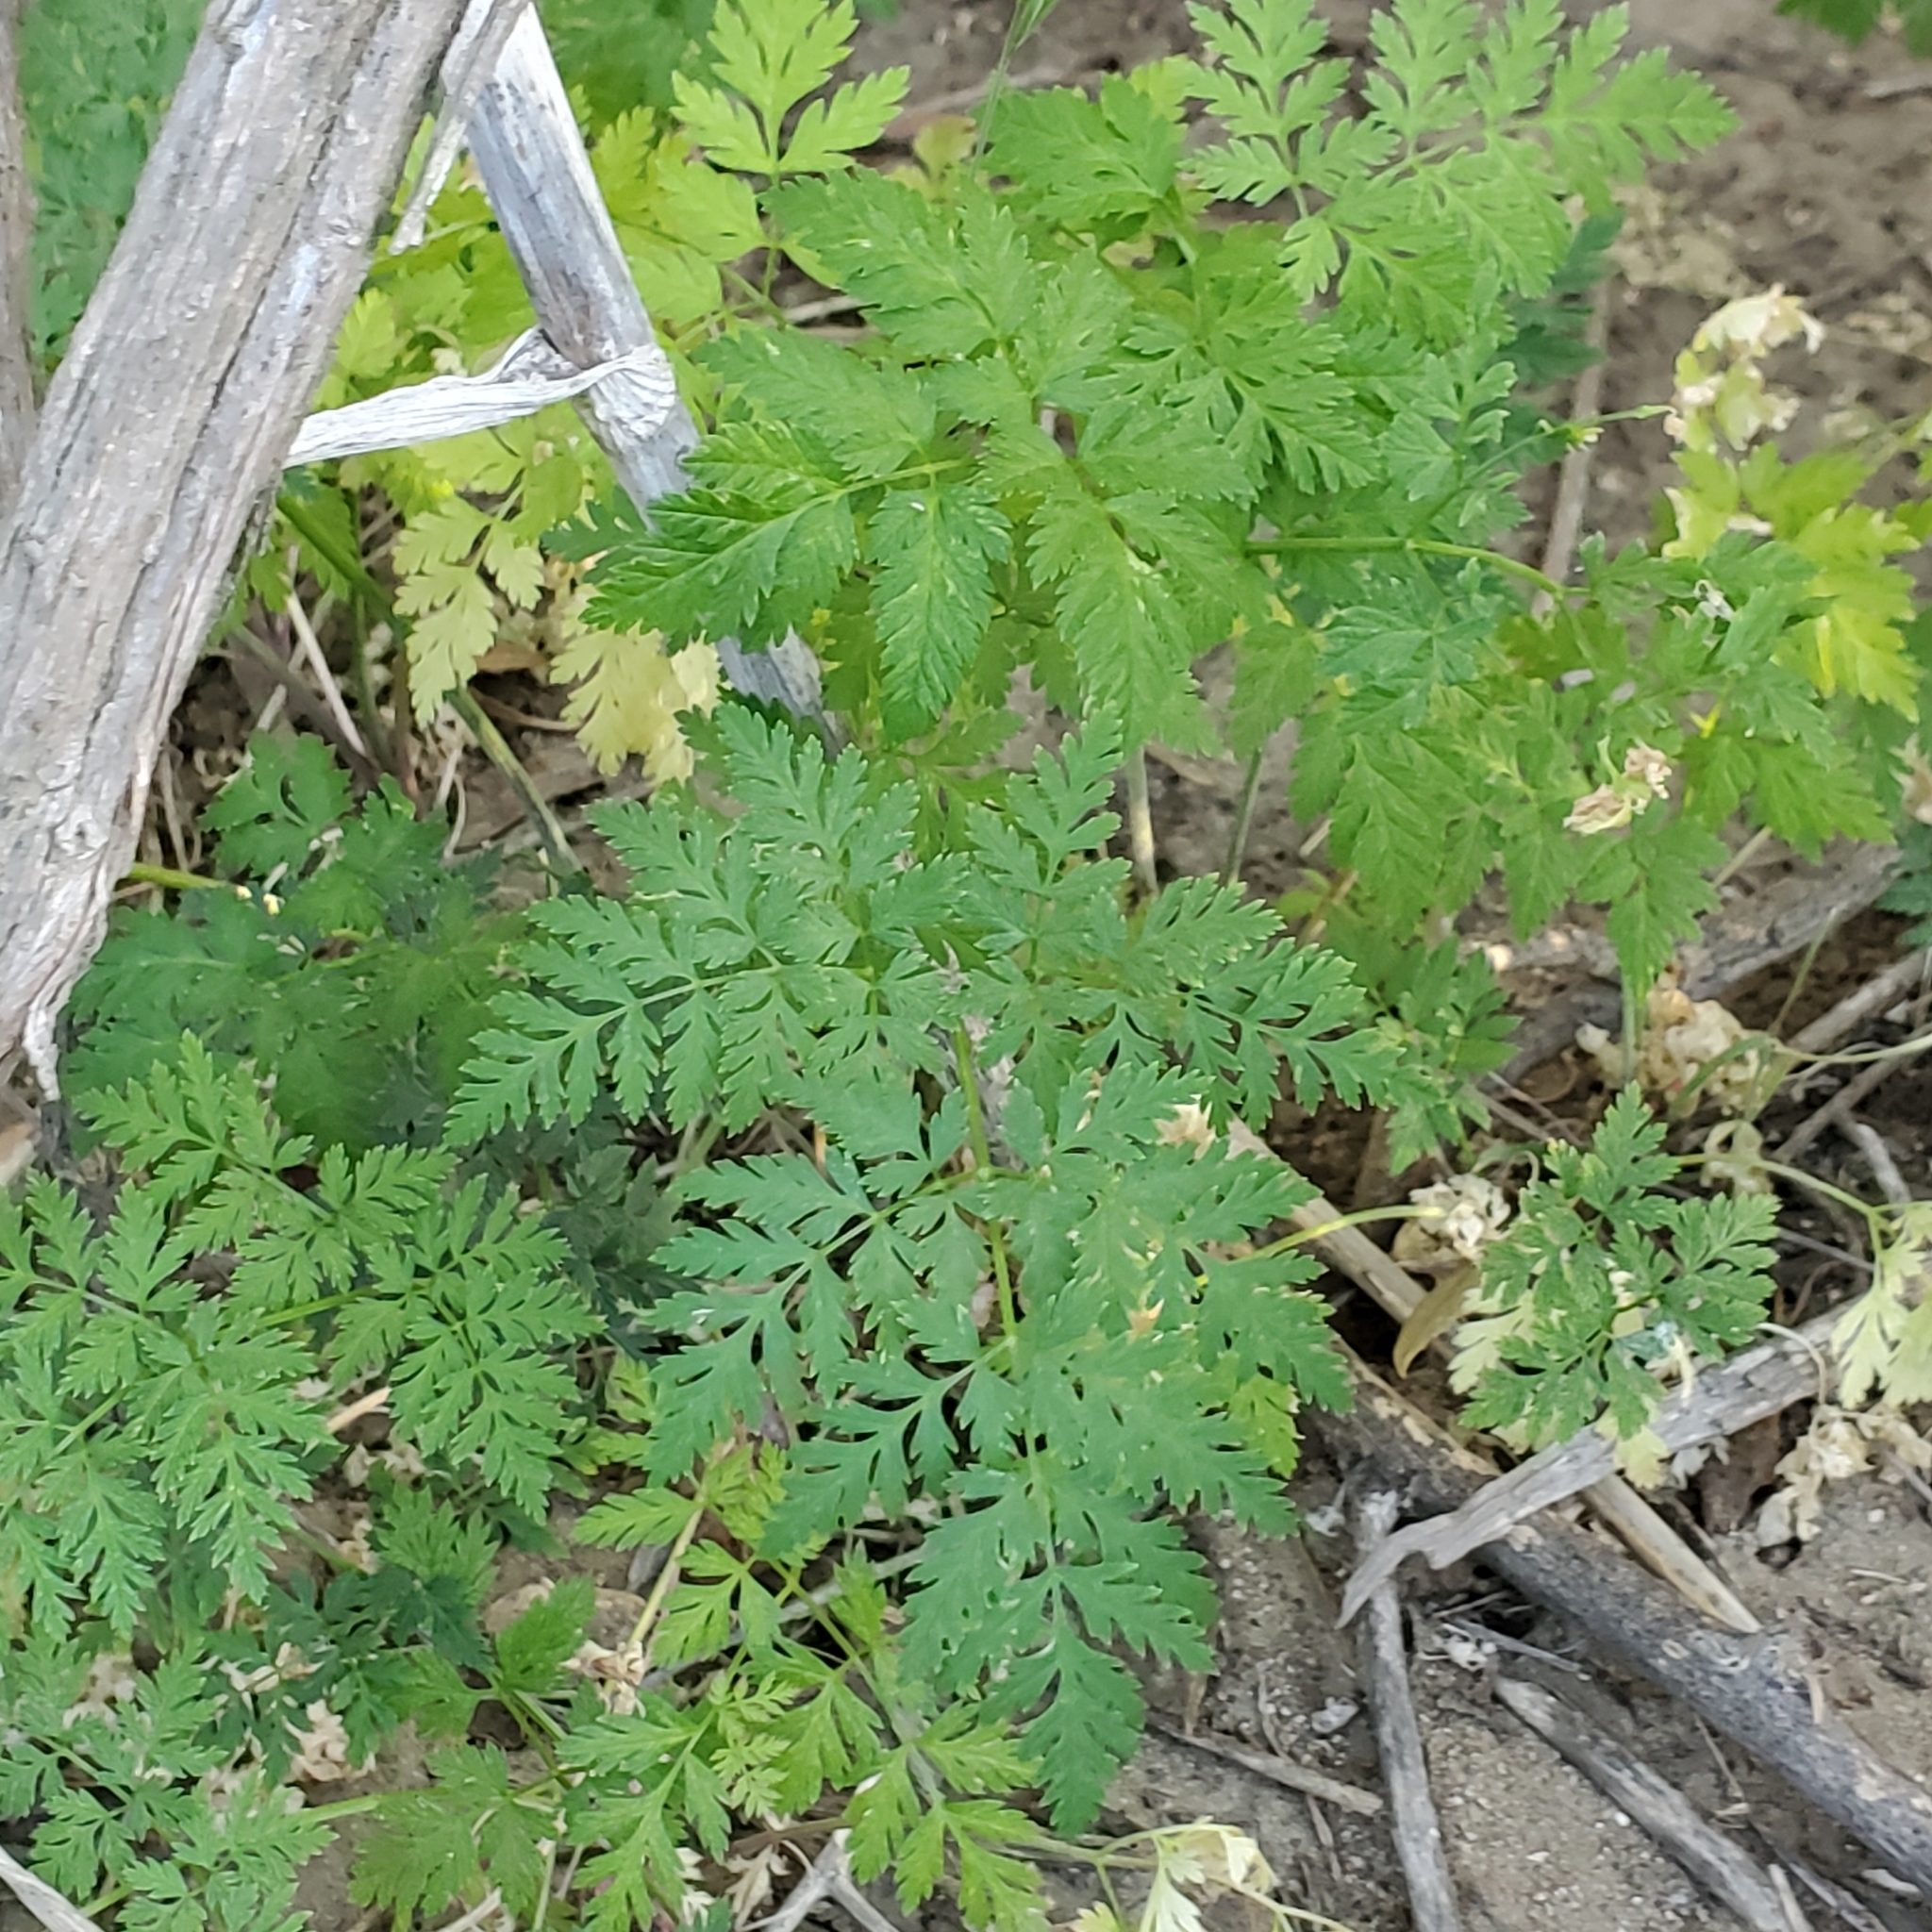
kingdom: Plantae
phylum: Tracheophyta
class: Magnoliopsida
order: Apiales
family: Apiaceae
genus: Conium
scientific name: Conium maculatum
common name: Hemlock
